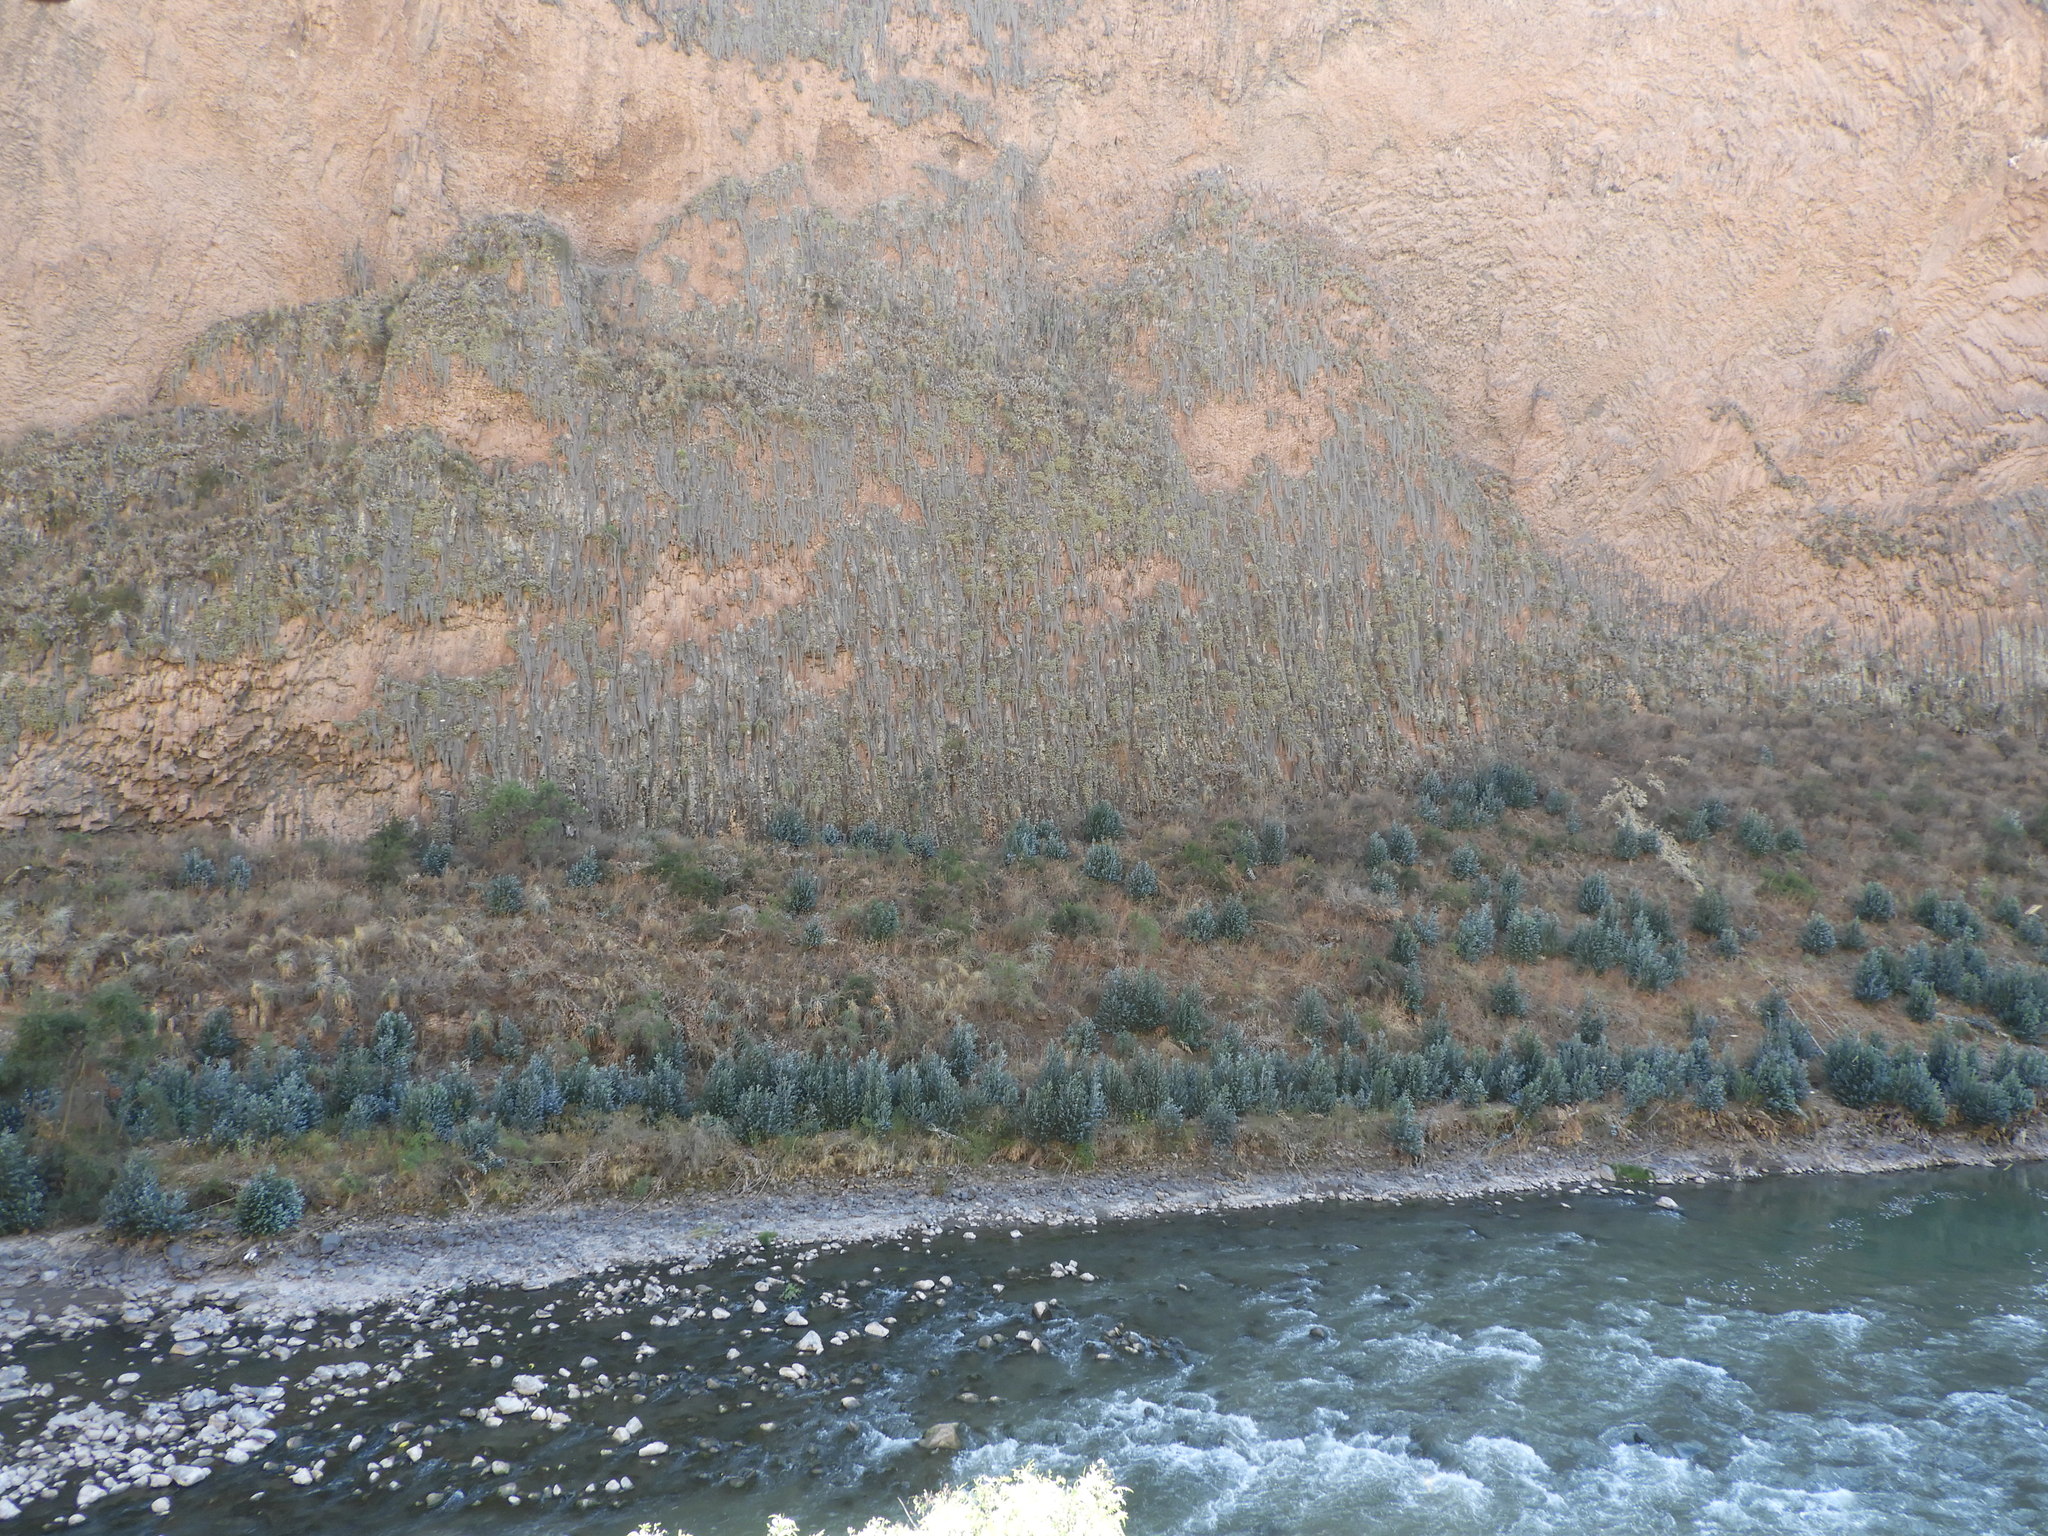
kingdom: Plantae
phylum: Tracheophyta
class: Liliopsida
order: Poales
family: Bromeliaceae
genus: Tillandsia
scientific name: Tillandsia usneoides
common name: Spanish moss
